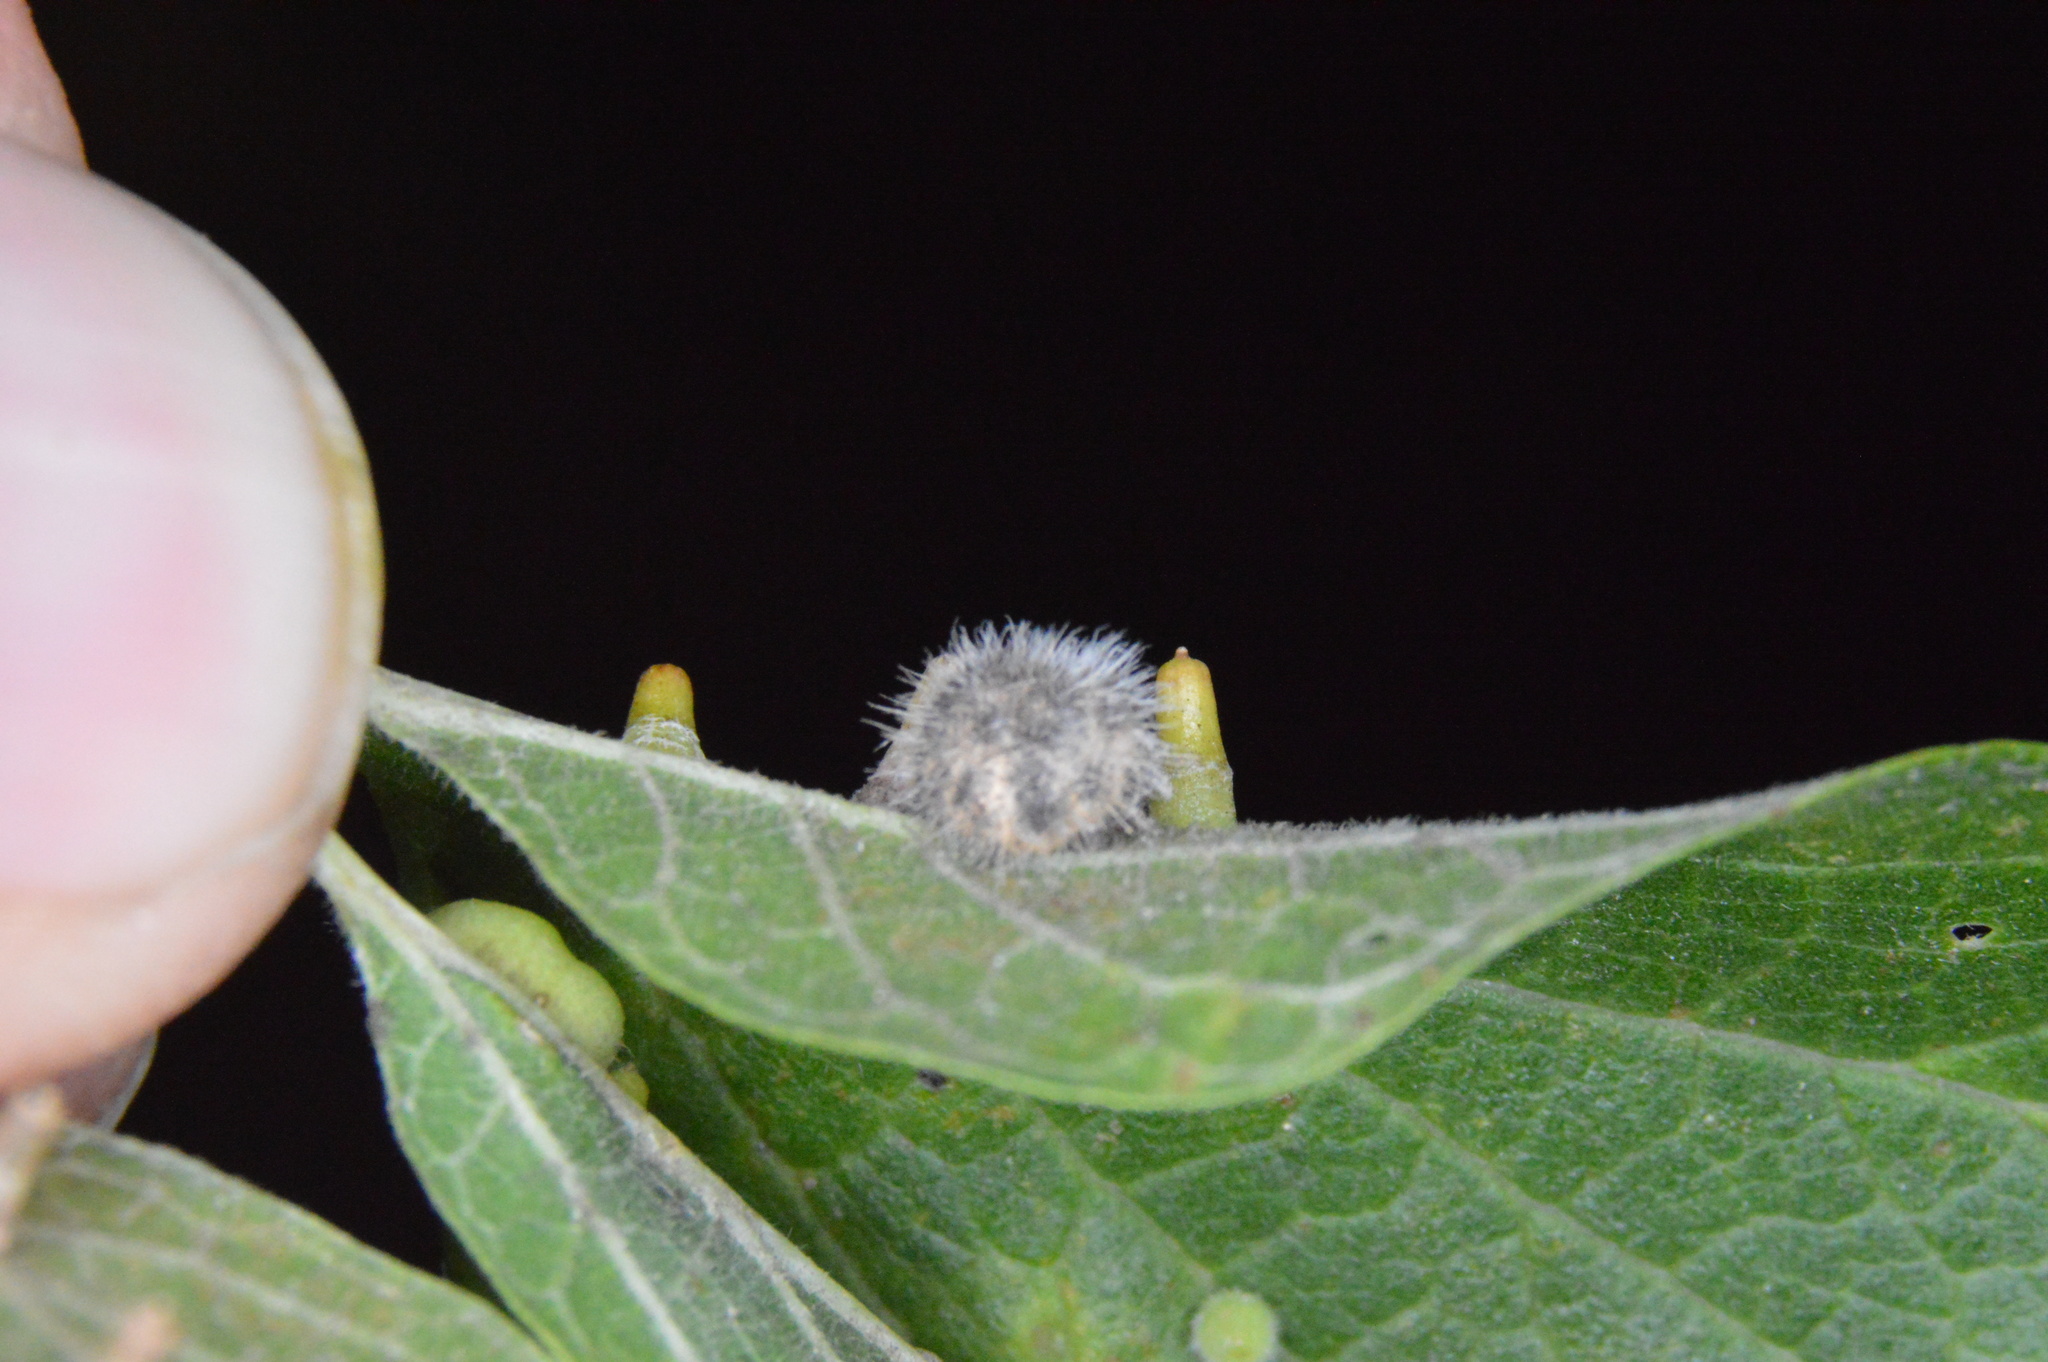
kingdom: Animalia
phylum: Arthropoda
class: Insecta
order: Diptera
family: Cecidomyiidae
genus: Celticecis
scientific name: Celticecis pubescens
